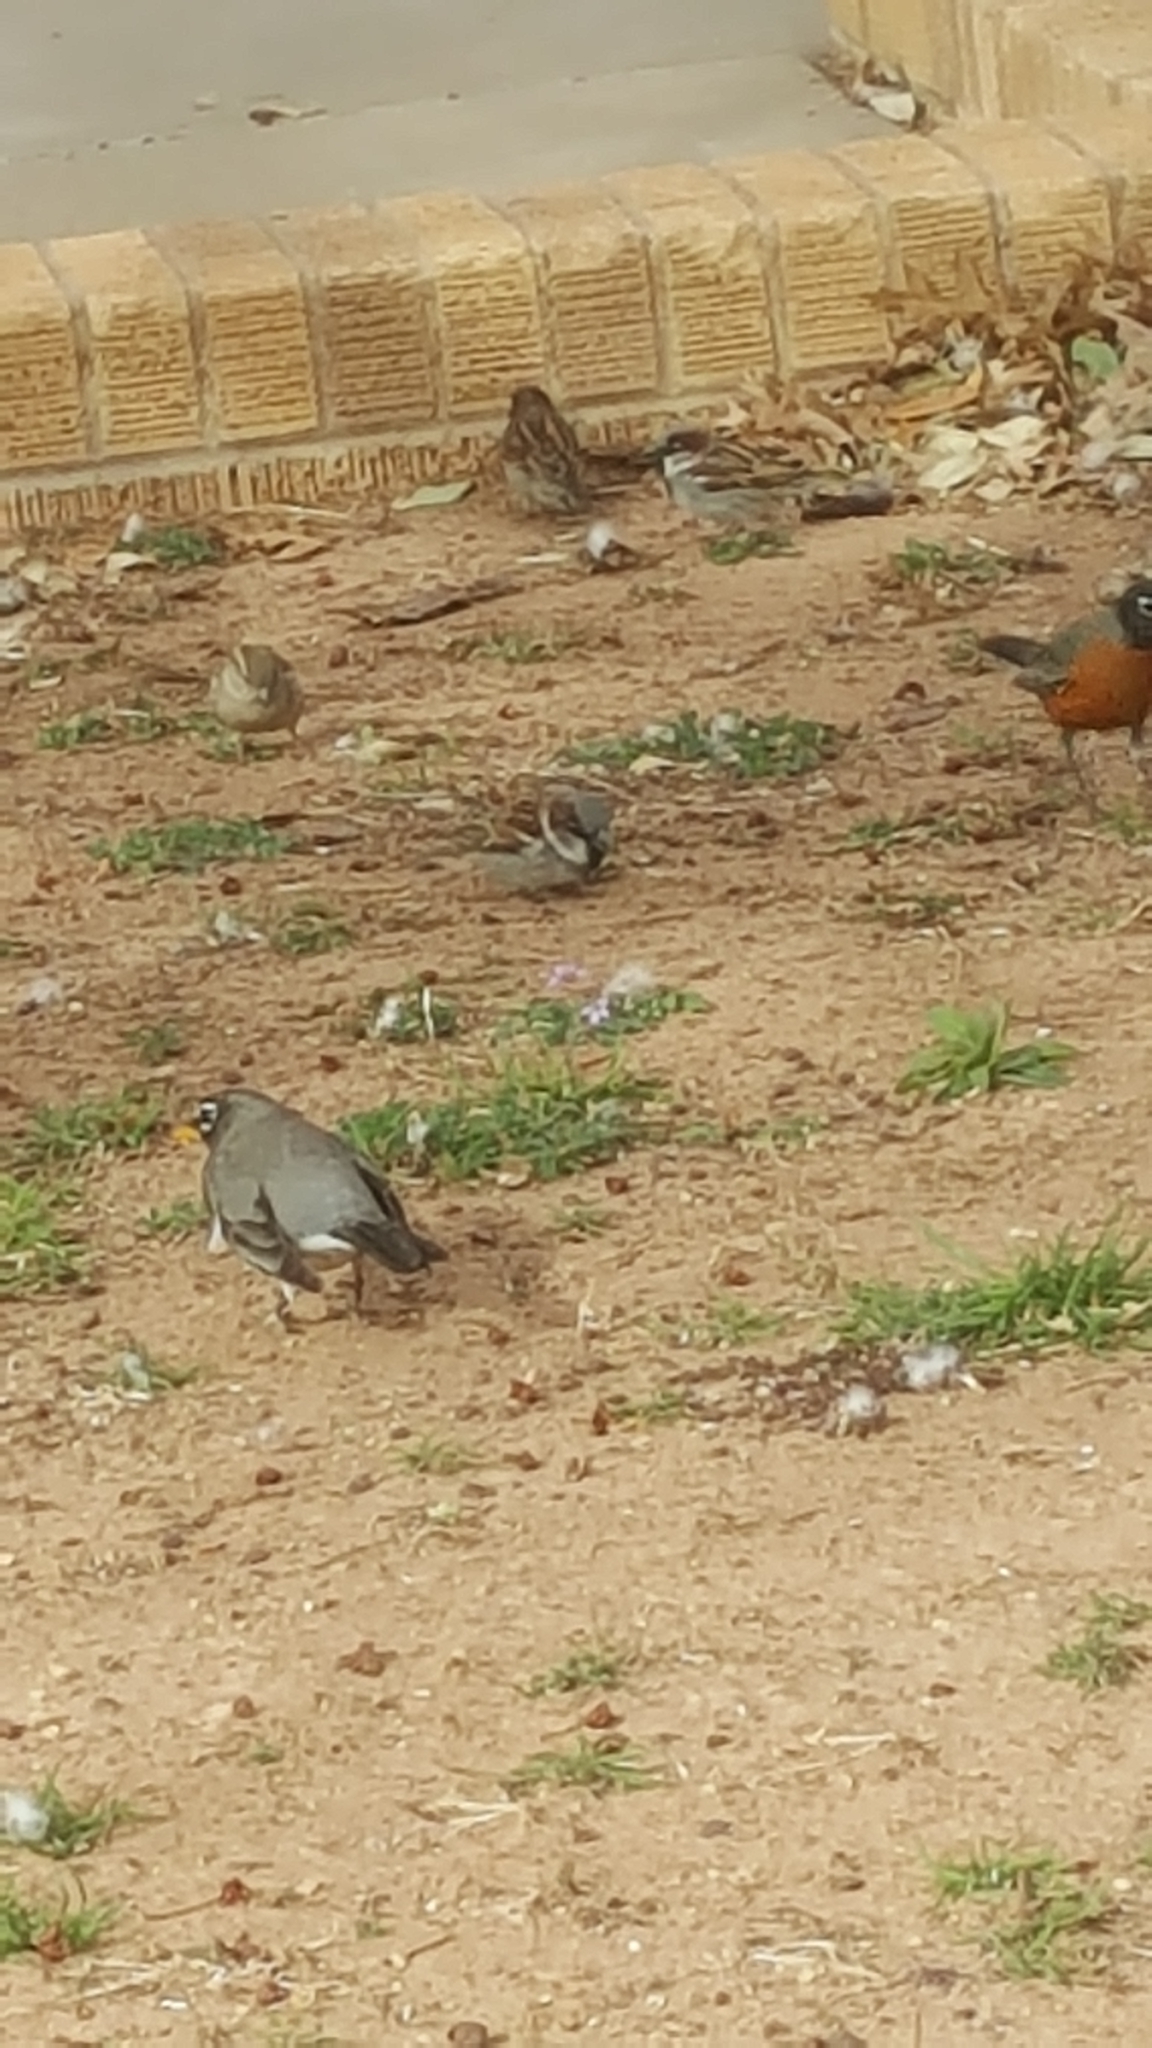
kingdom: Animalia
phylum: Chordata
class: Aves
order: Passeriformes
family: Passeridae
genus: Passer
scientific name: Passer domesticus
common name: House sparrow
